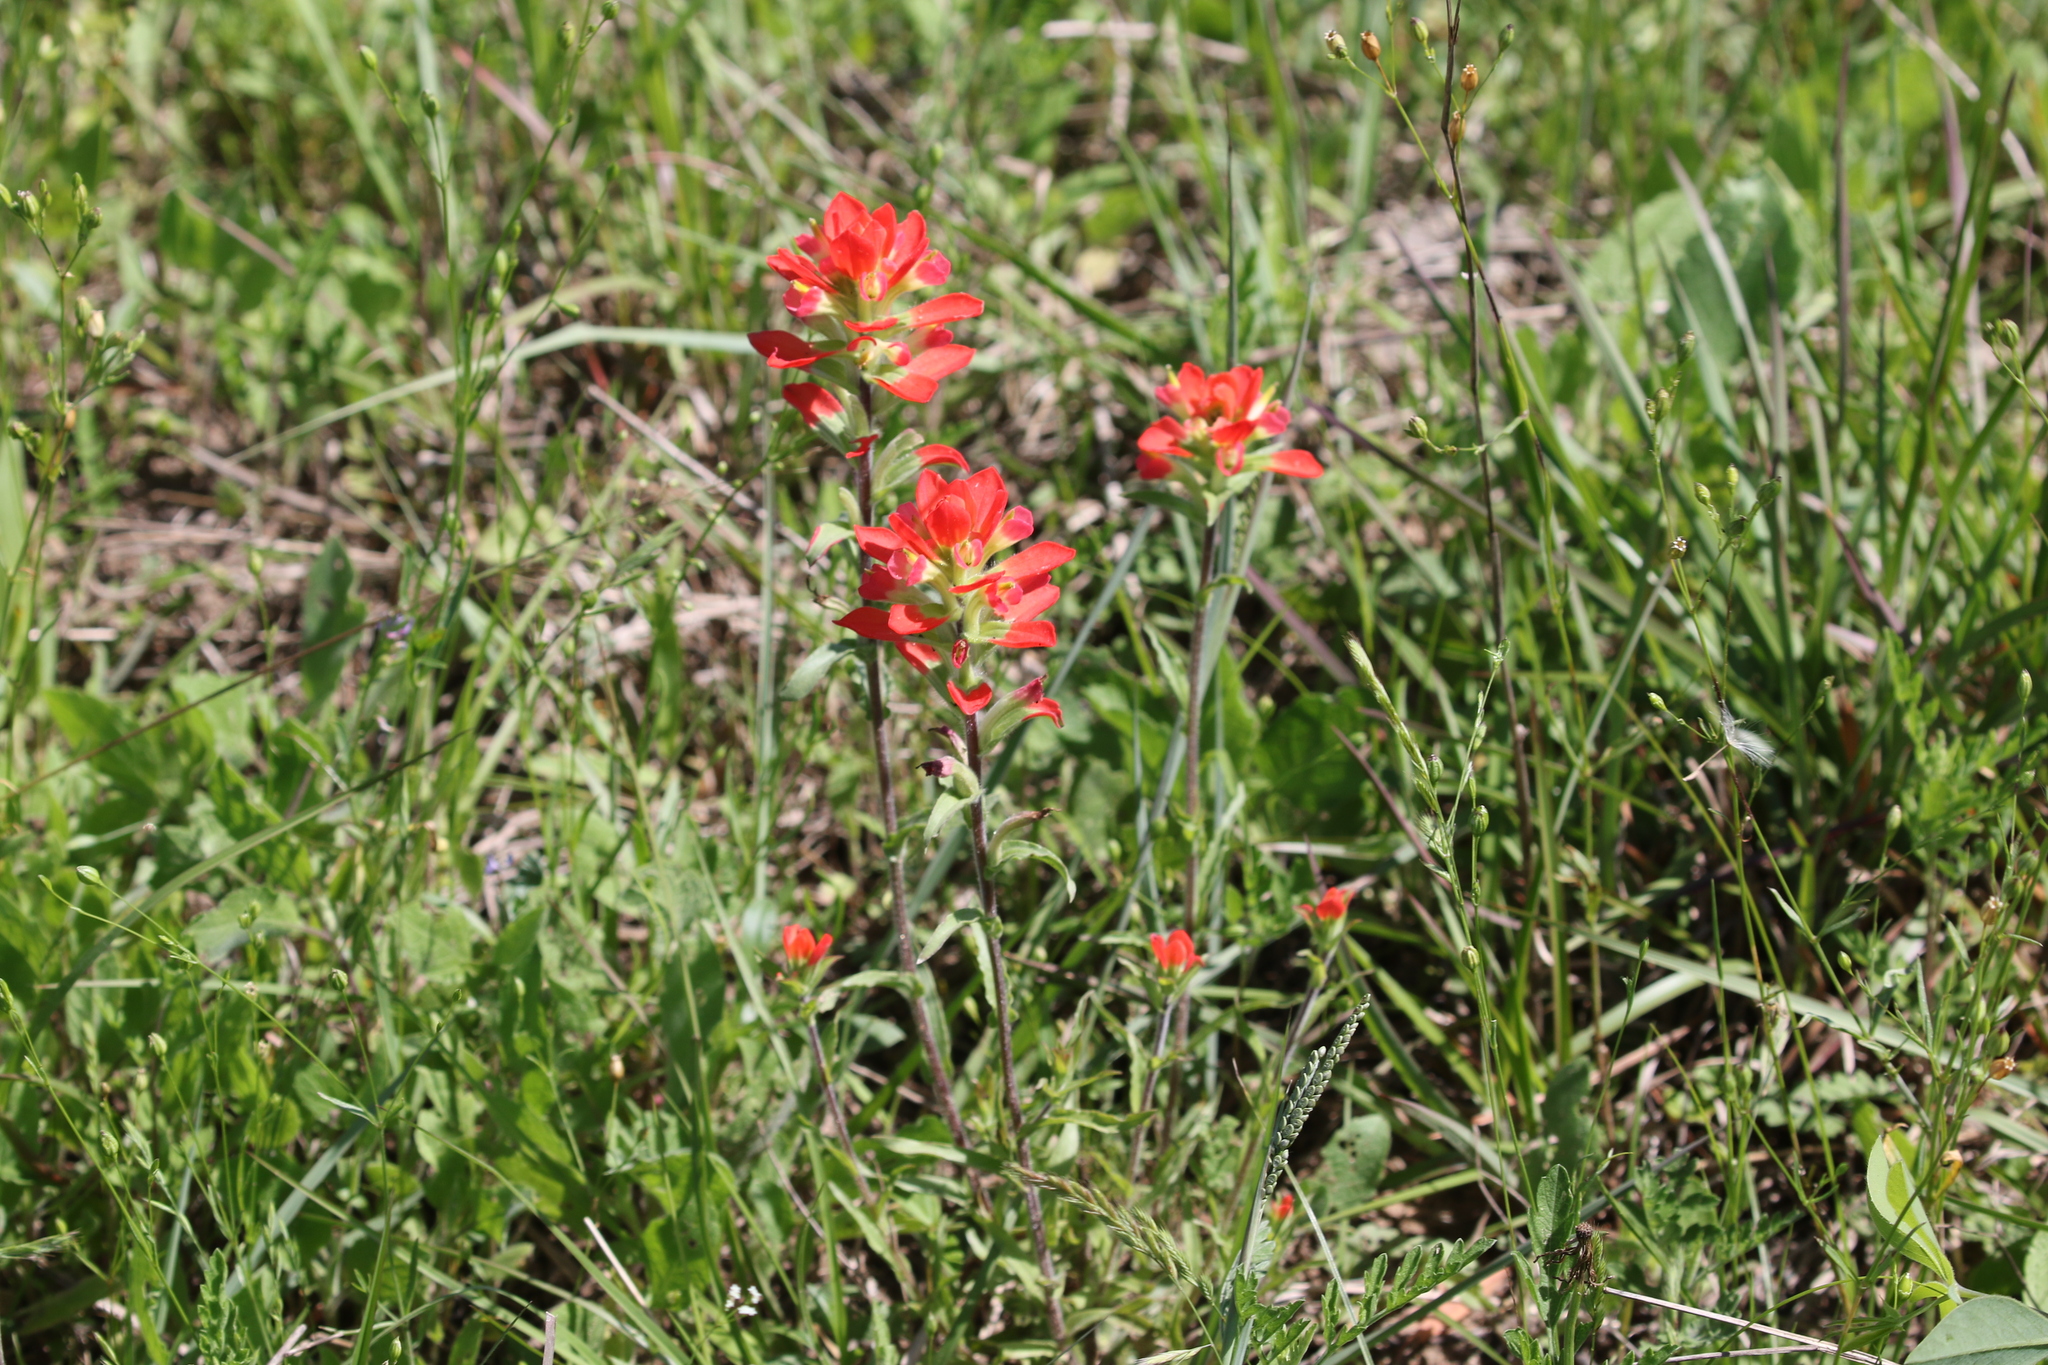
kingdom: Plantae
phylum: Tracheophyta
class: Magnoliopsida
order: Lamiales
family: Orobanchaceae
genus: Castilleja
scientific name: Castilleja indivisa
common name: Texas paintbrush
